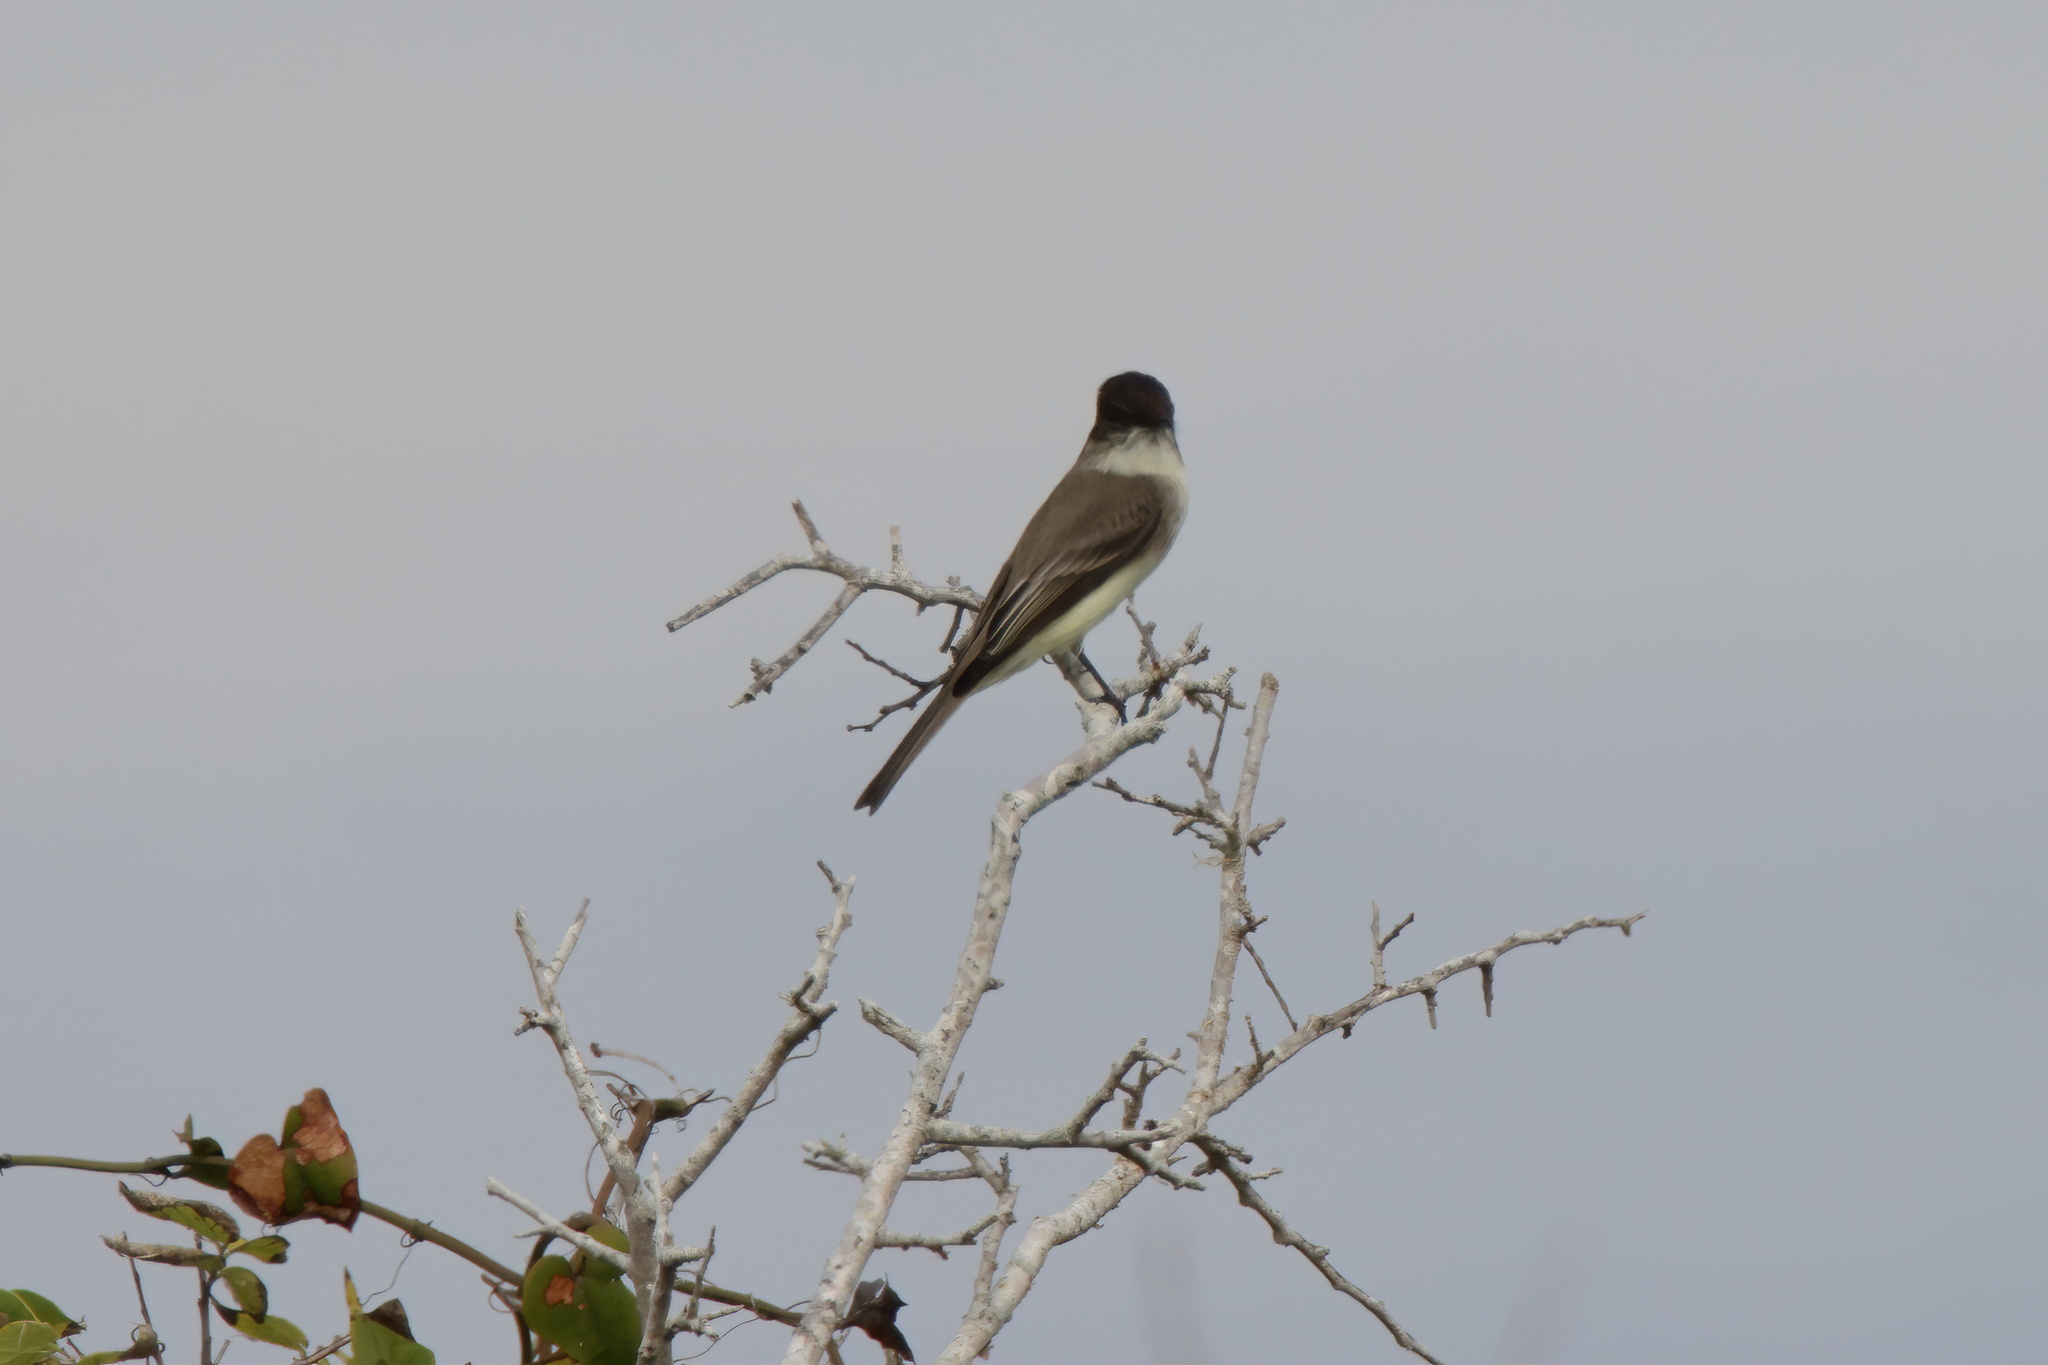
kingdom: Animalia
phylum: Chordata
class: Aves
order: Passeriformes
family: Tyrannidae
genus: Sayornis
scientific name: Sayornis phoebe
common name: Eastern phoebe
